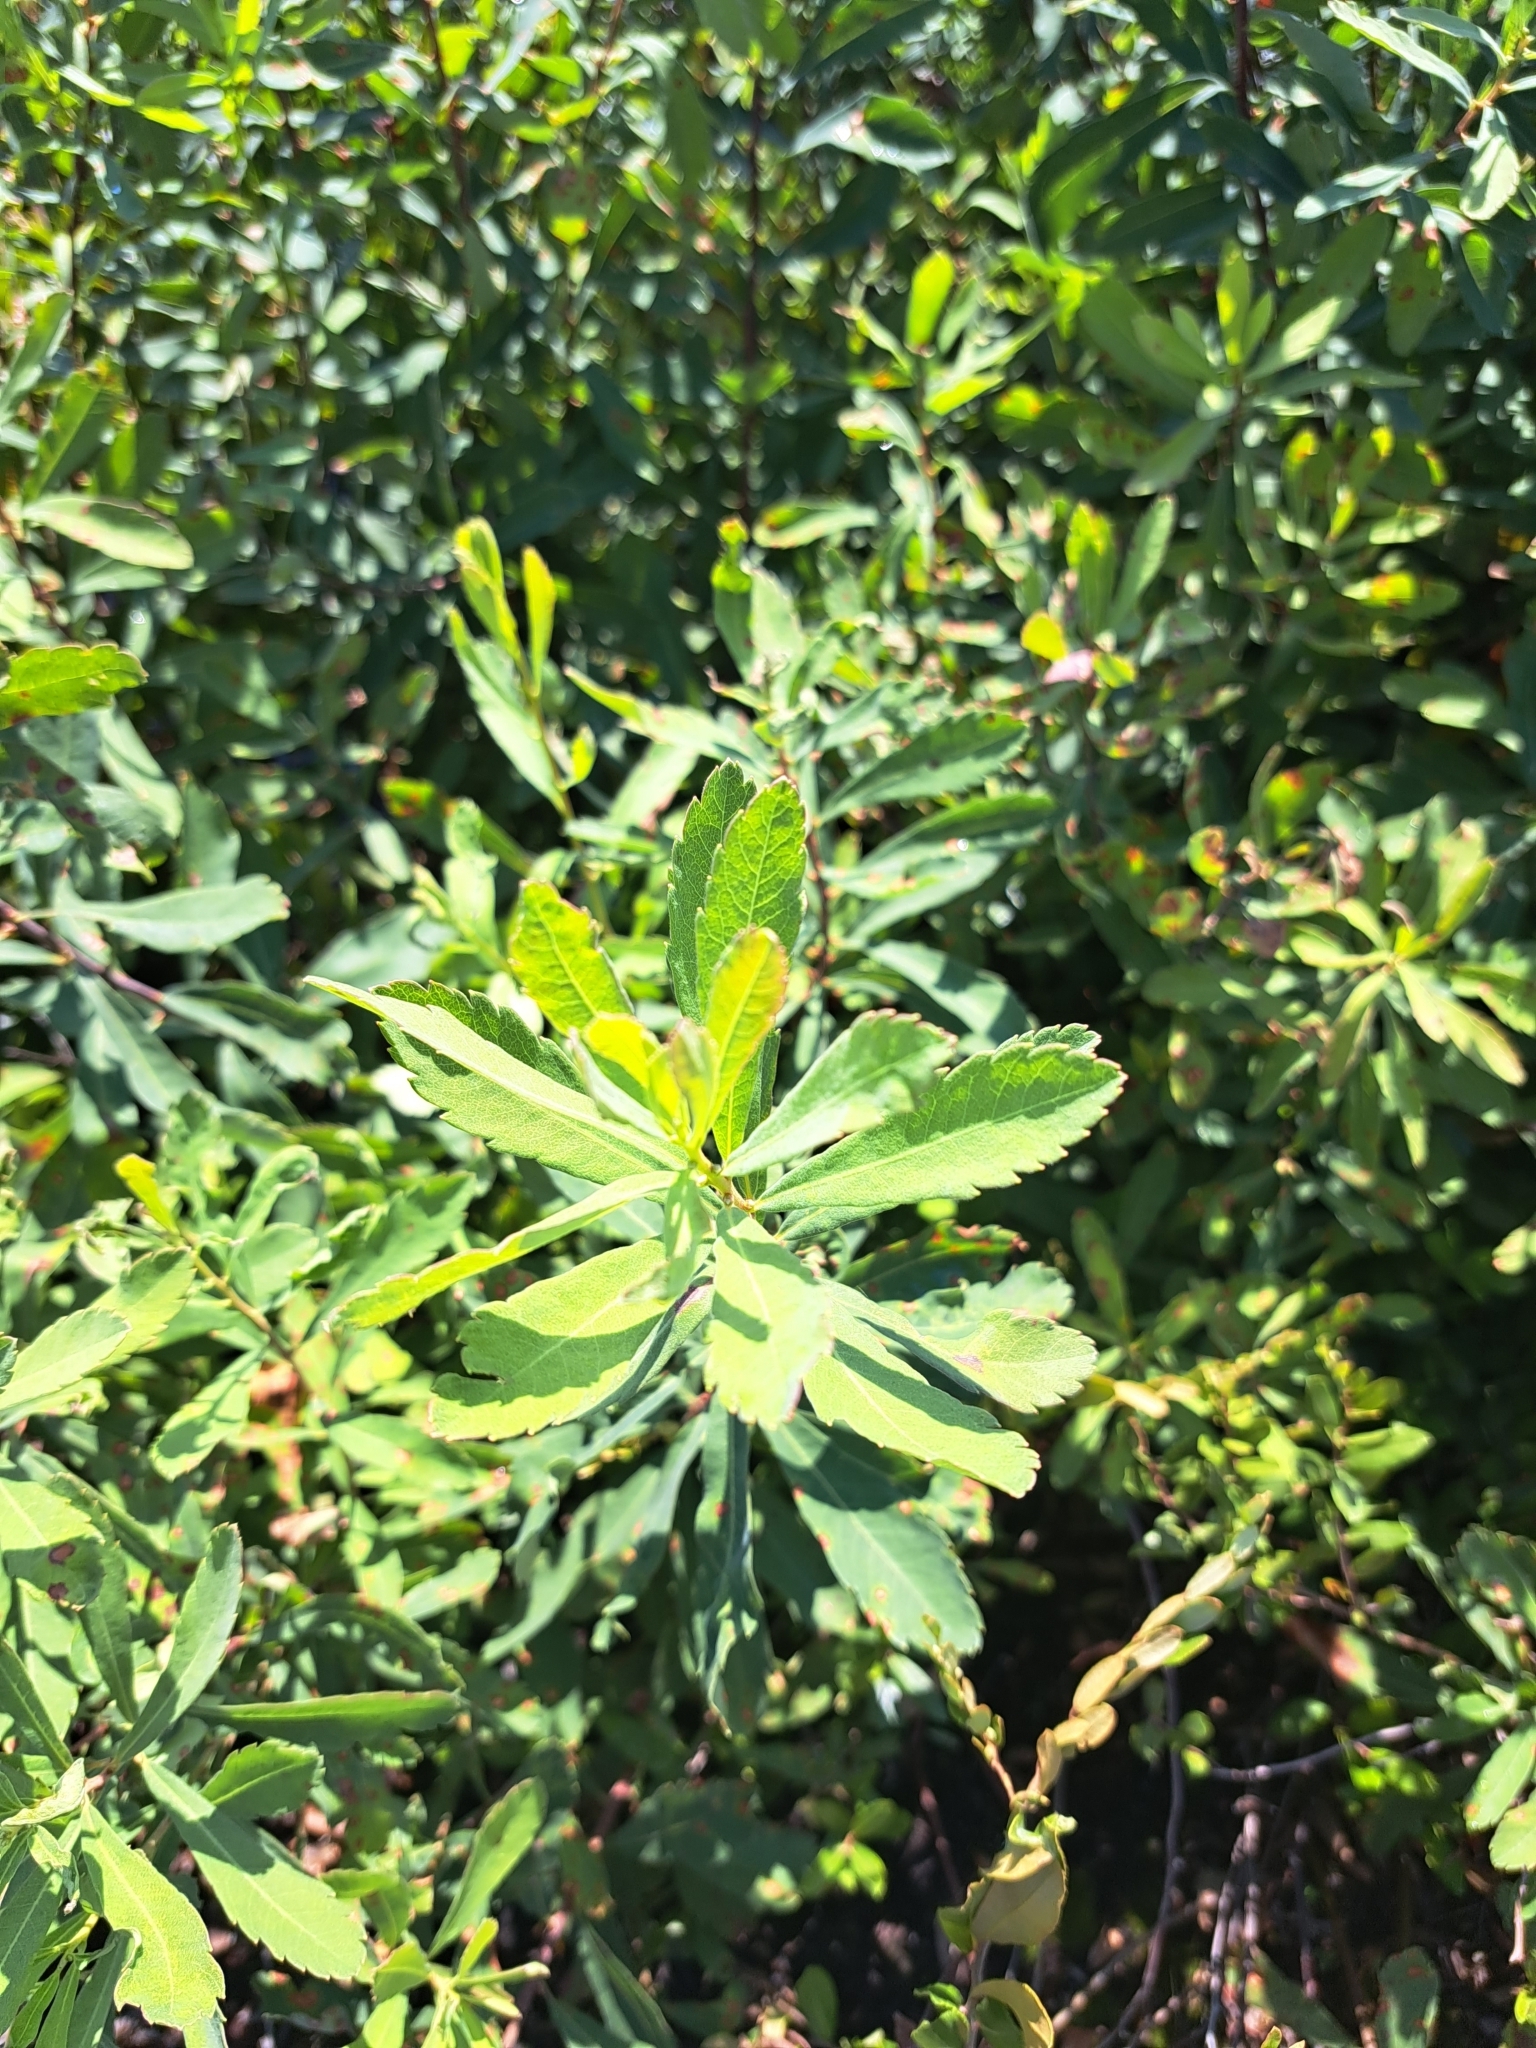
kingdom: Plantae
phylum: Tracheophyta
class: Magnoliopsida
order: Fagales
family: Myricaceae
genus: Myrica
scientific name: Myrica gale
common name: Sweet gale
